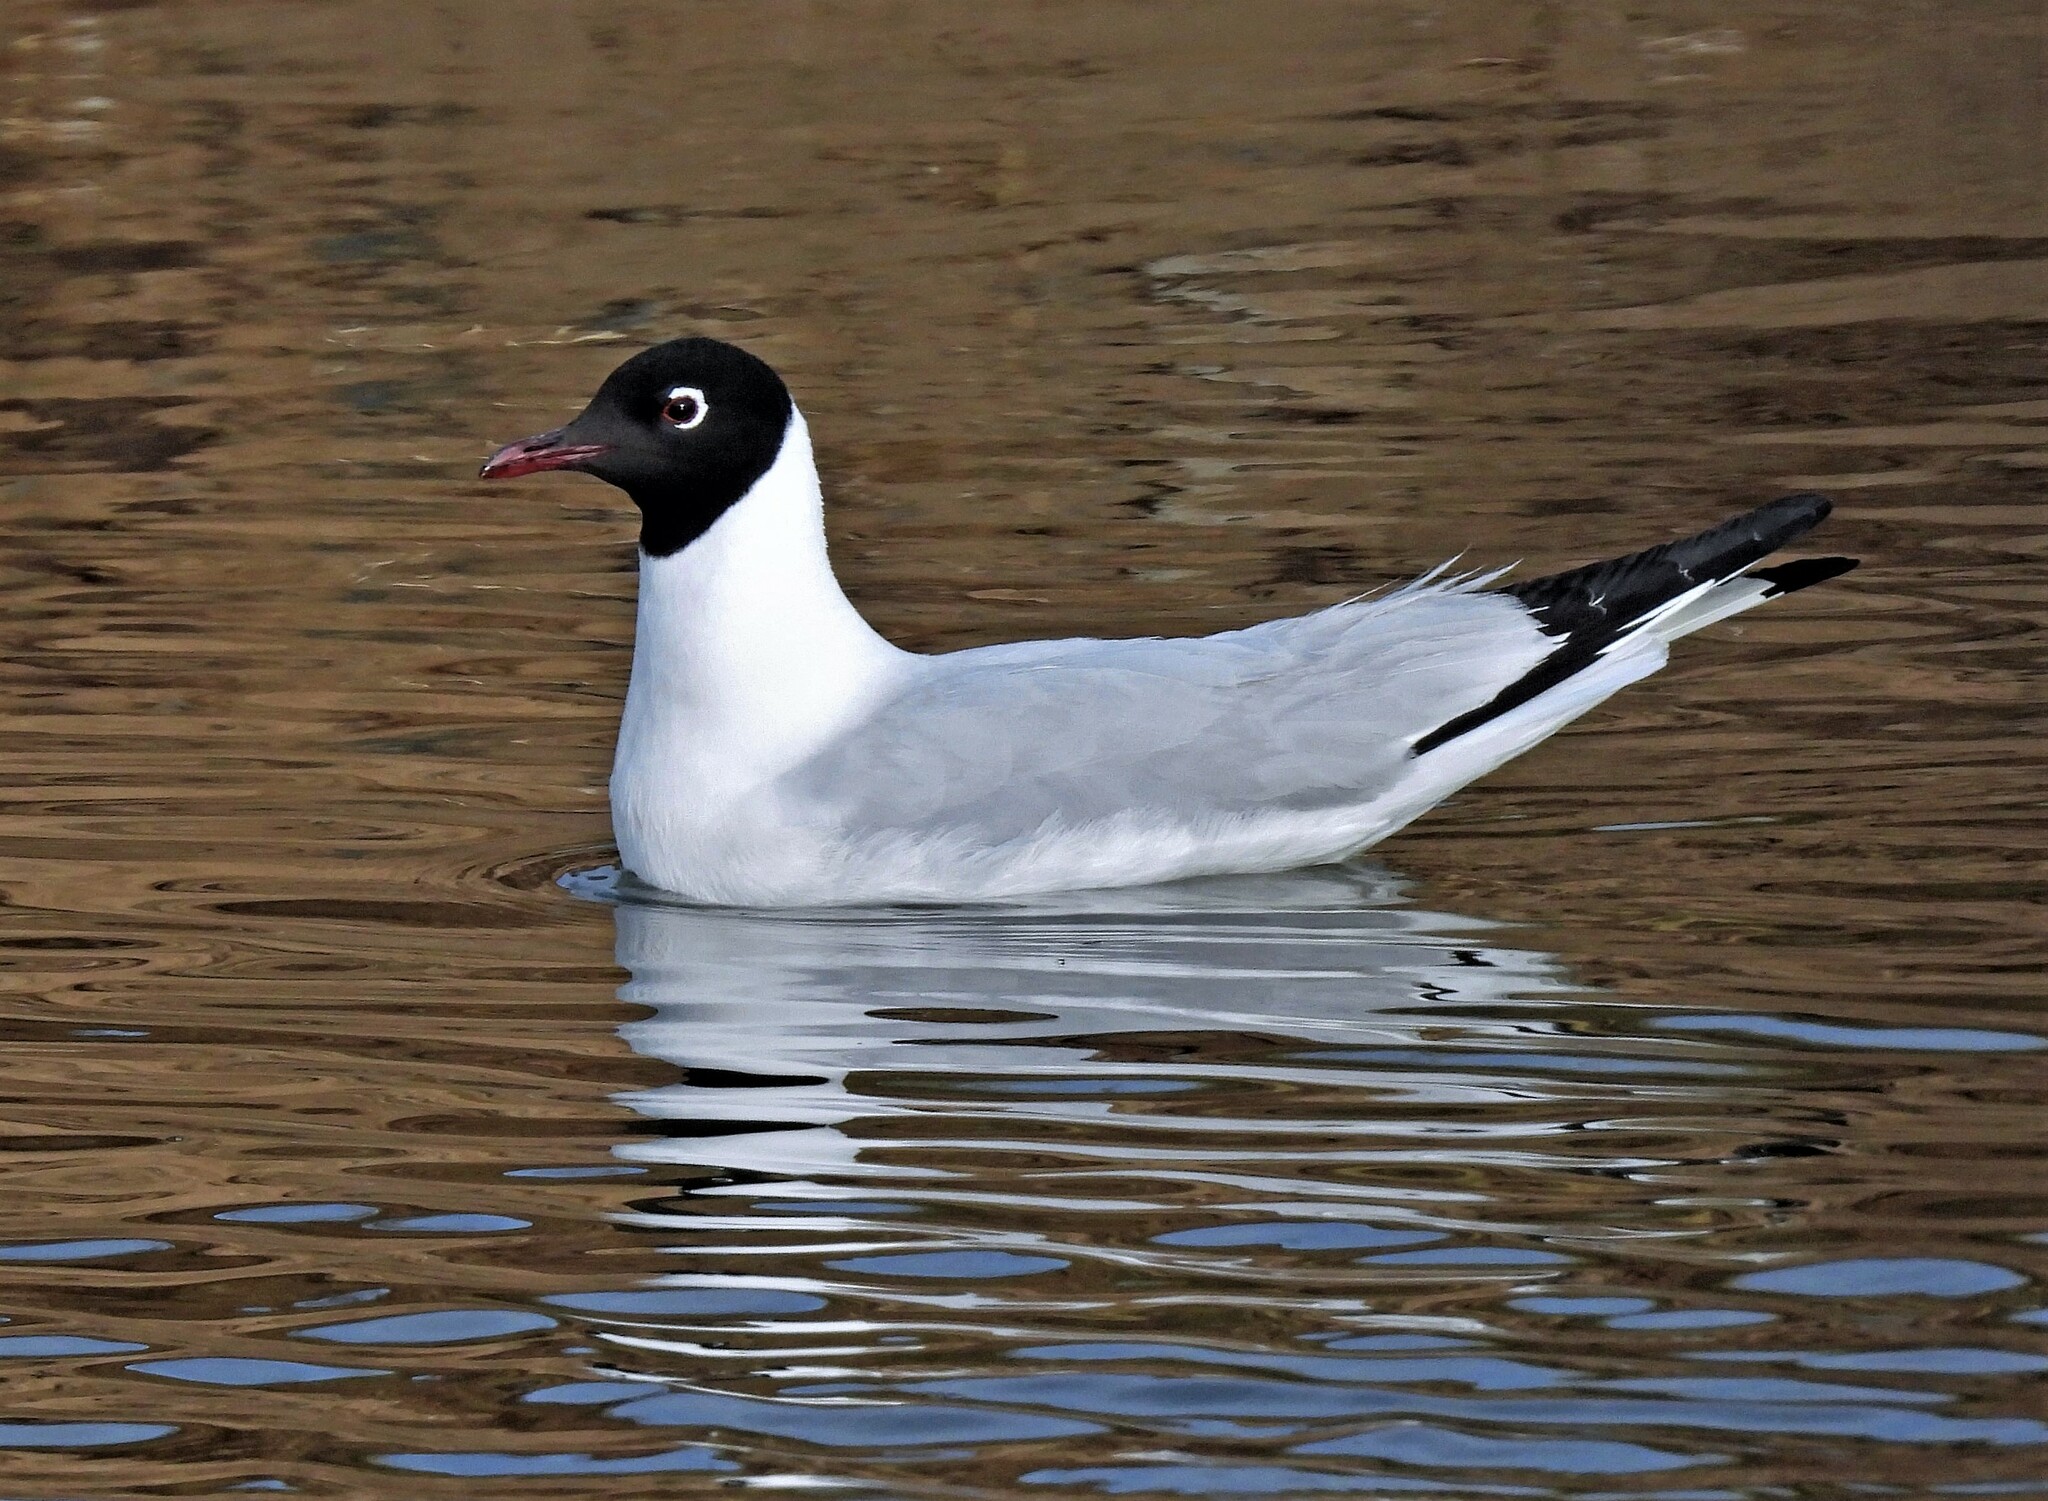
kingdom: Animalia
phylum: Chordata
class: Aves
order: Charadriiformes
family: Laridae
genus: Chroicocephalus
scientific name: Chroicocephalus serranus
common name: Andean gull
